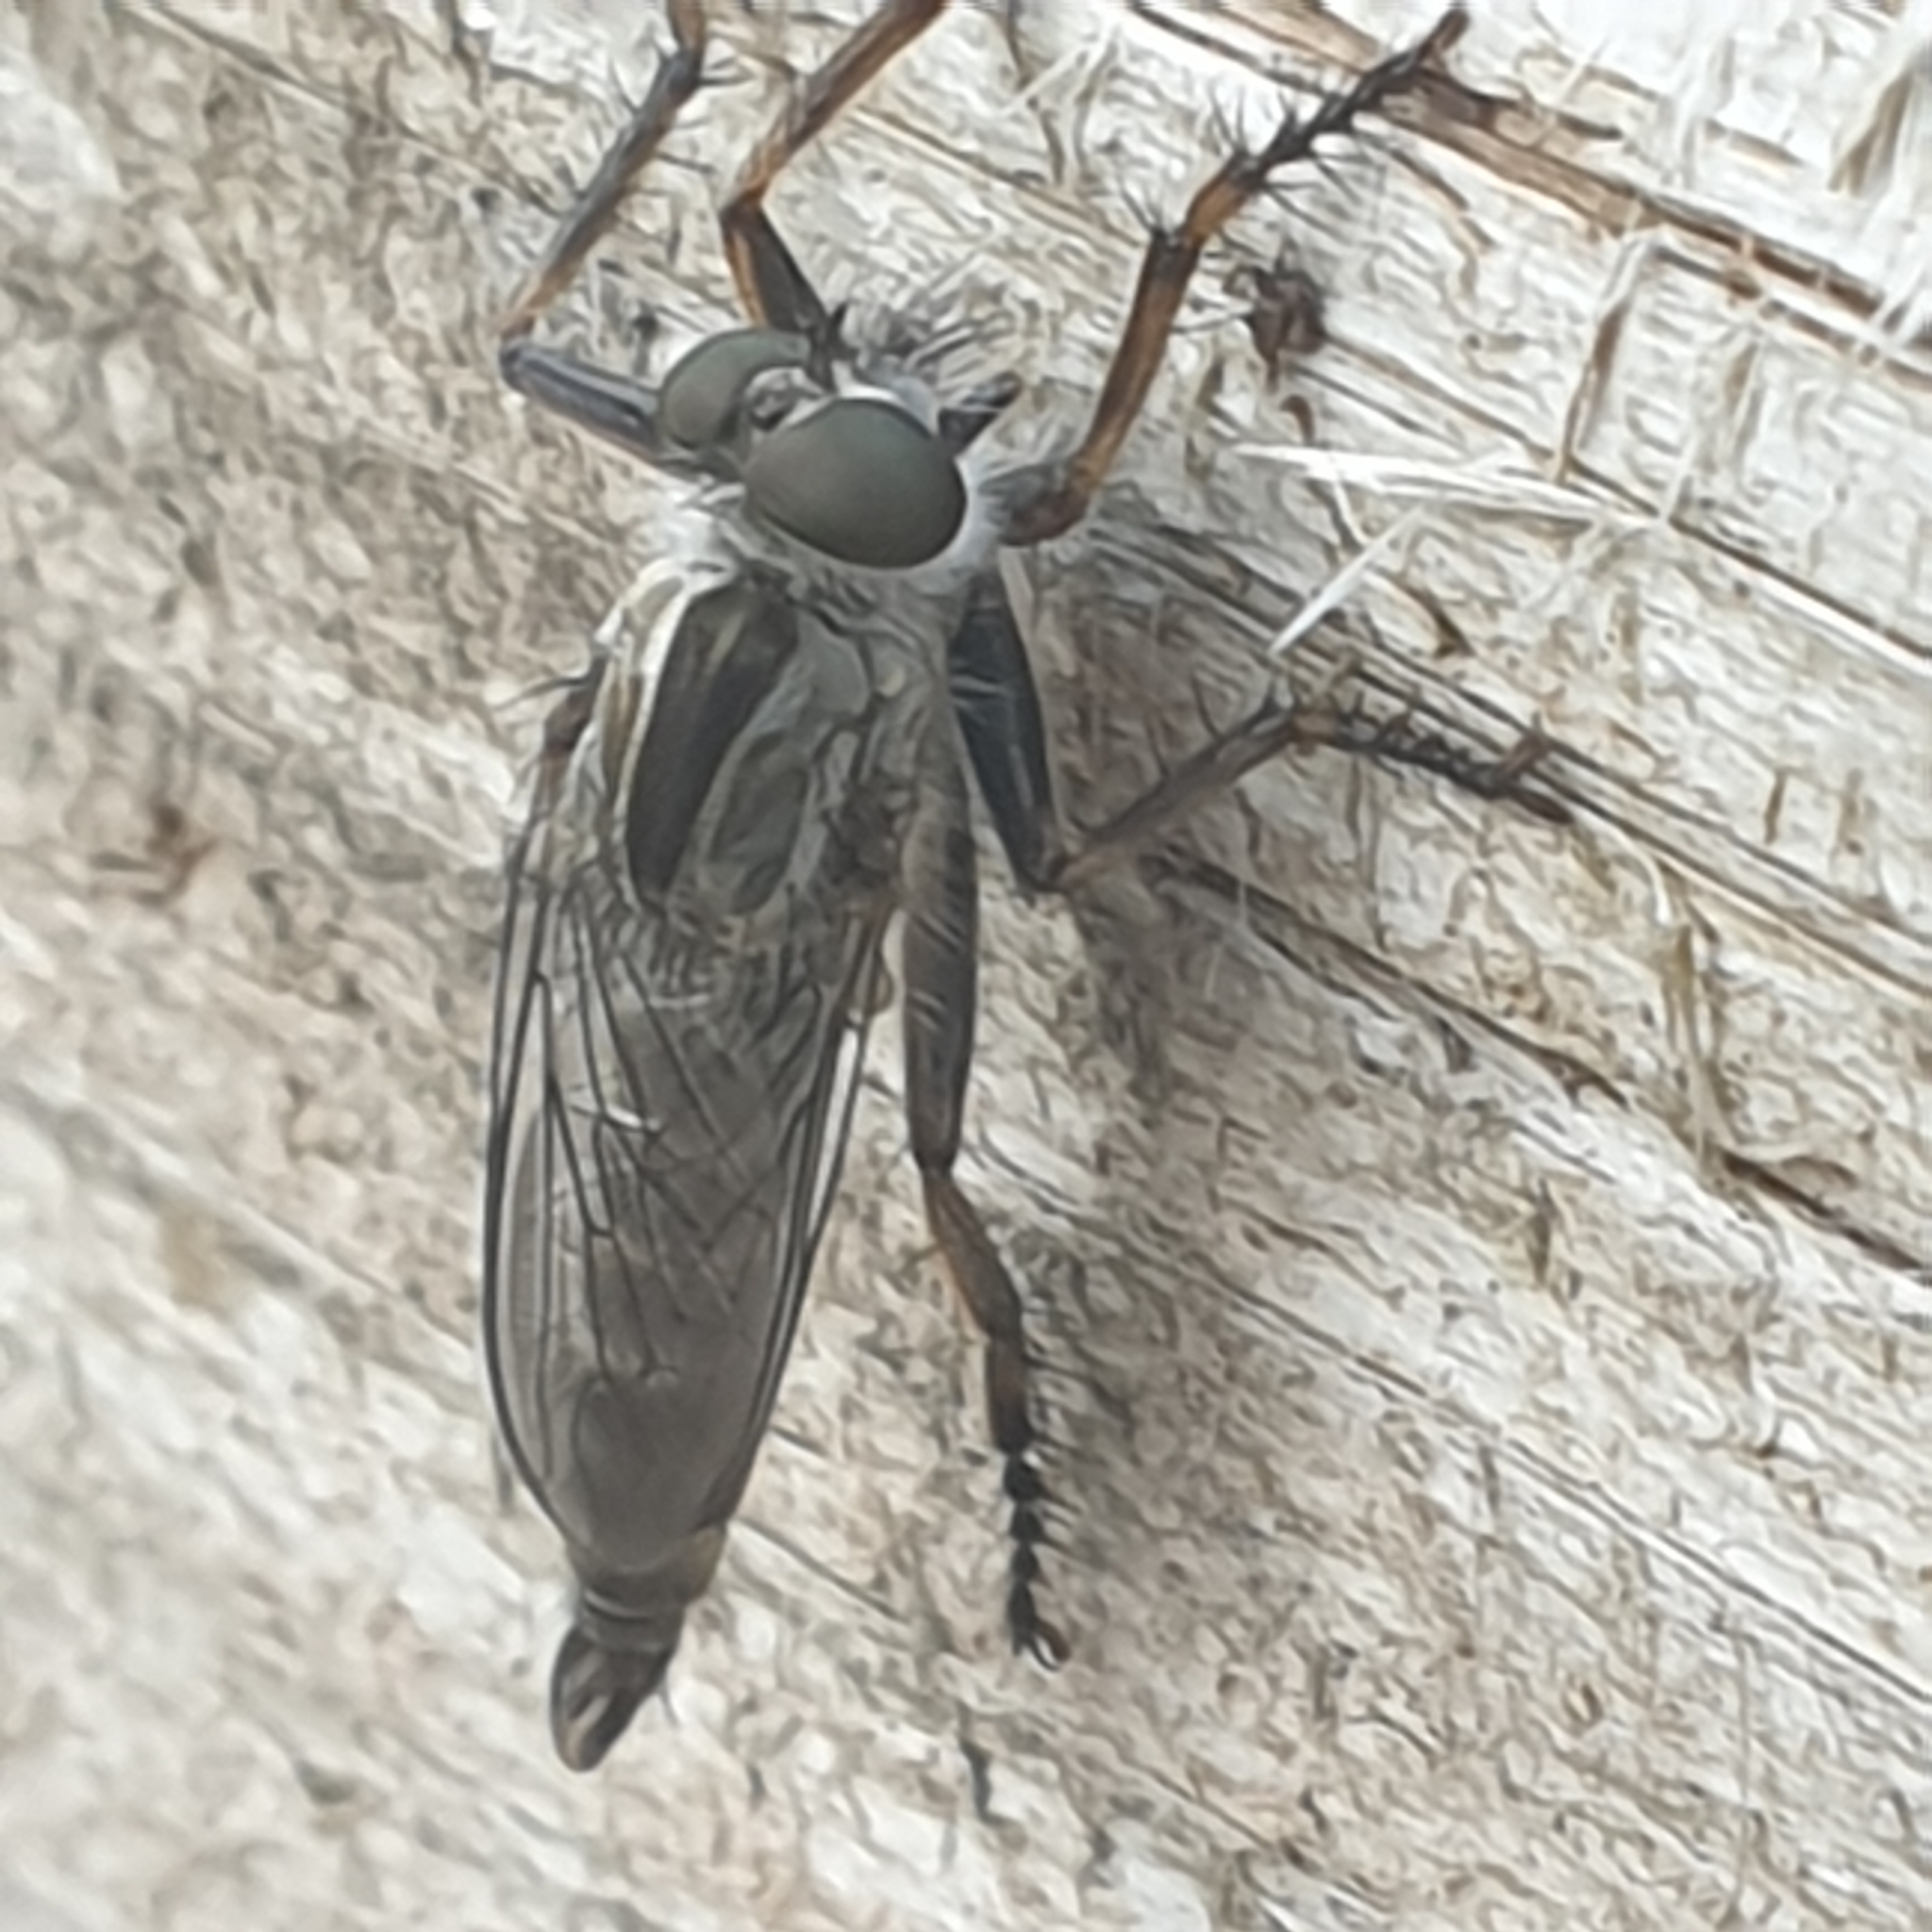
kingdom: Animalia
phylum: Arthropoda
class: Insecta
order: Diptera
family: Asilidae
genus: Machimus
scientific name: Machimus atricapillus
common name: Kite-tailed robberfly
